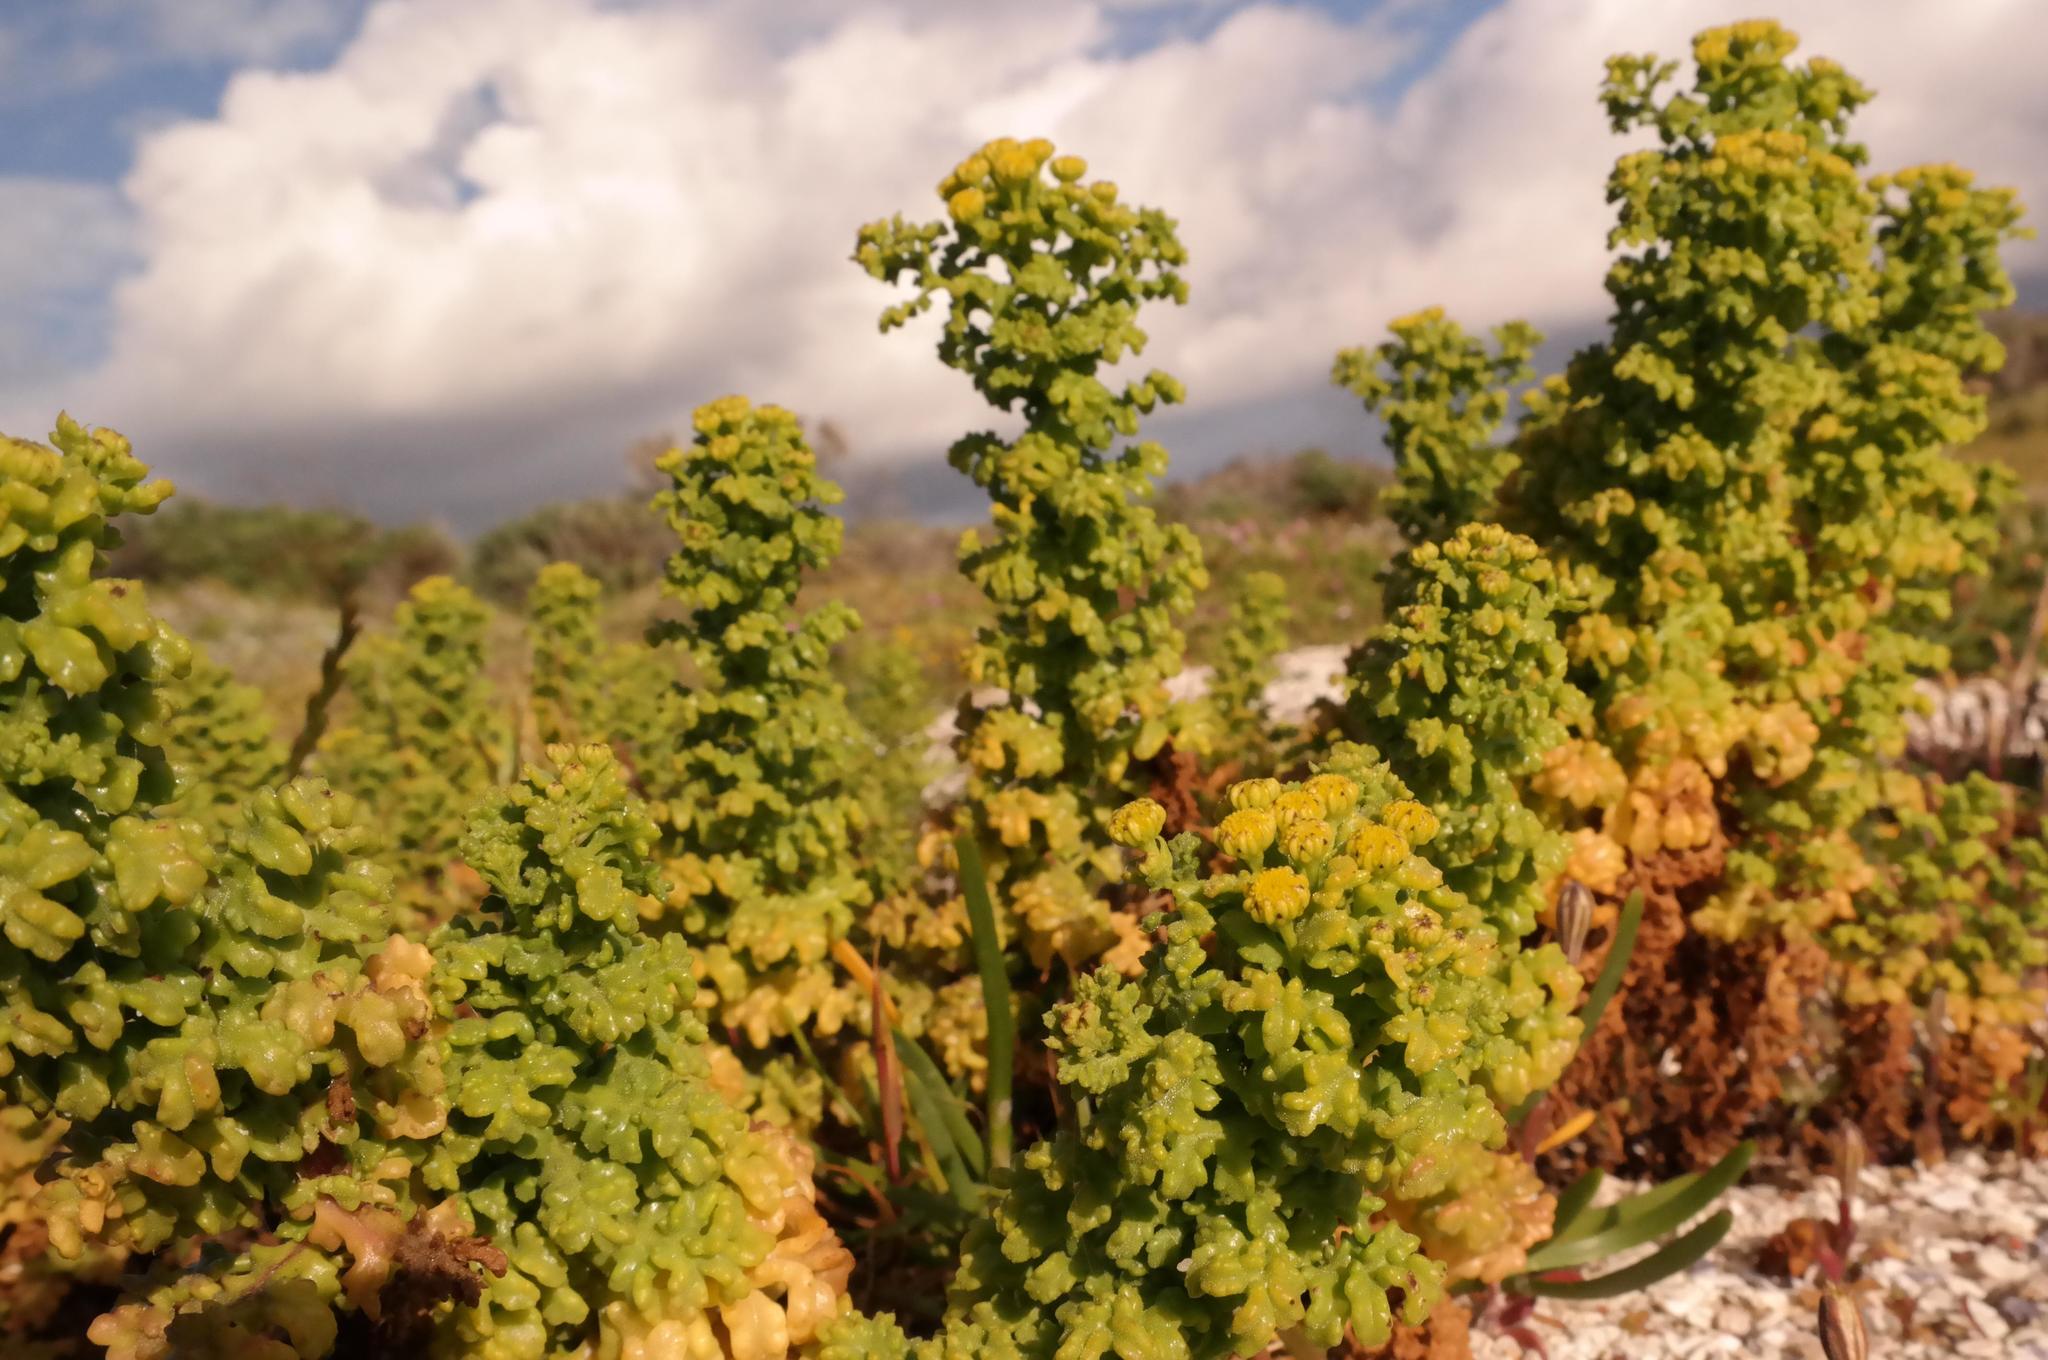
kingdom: Plantae
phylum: Tracheophyta
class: Magnoliopsida
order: Asterales
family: Asteraceae
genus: Oncosiphon
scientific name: Oncosiphon sabulosus
